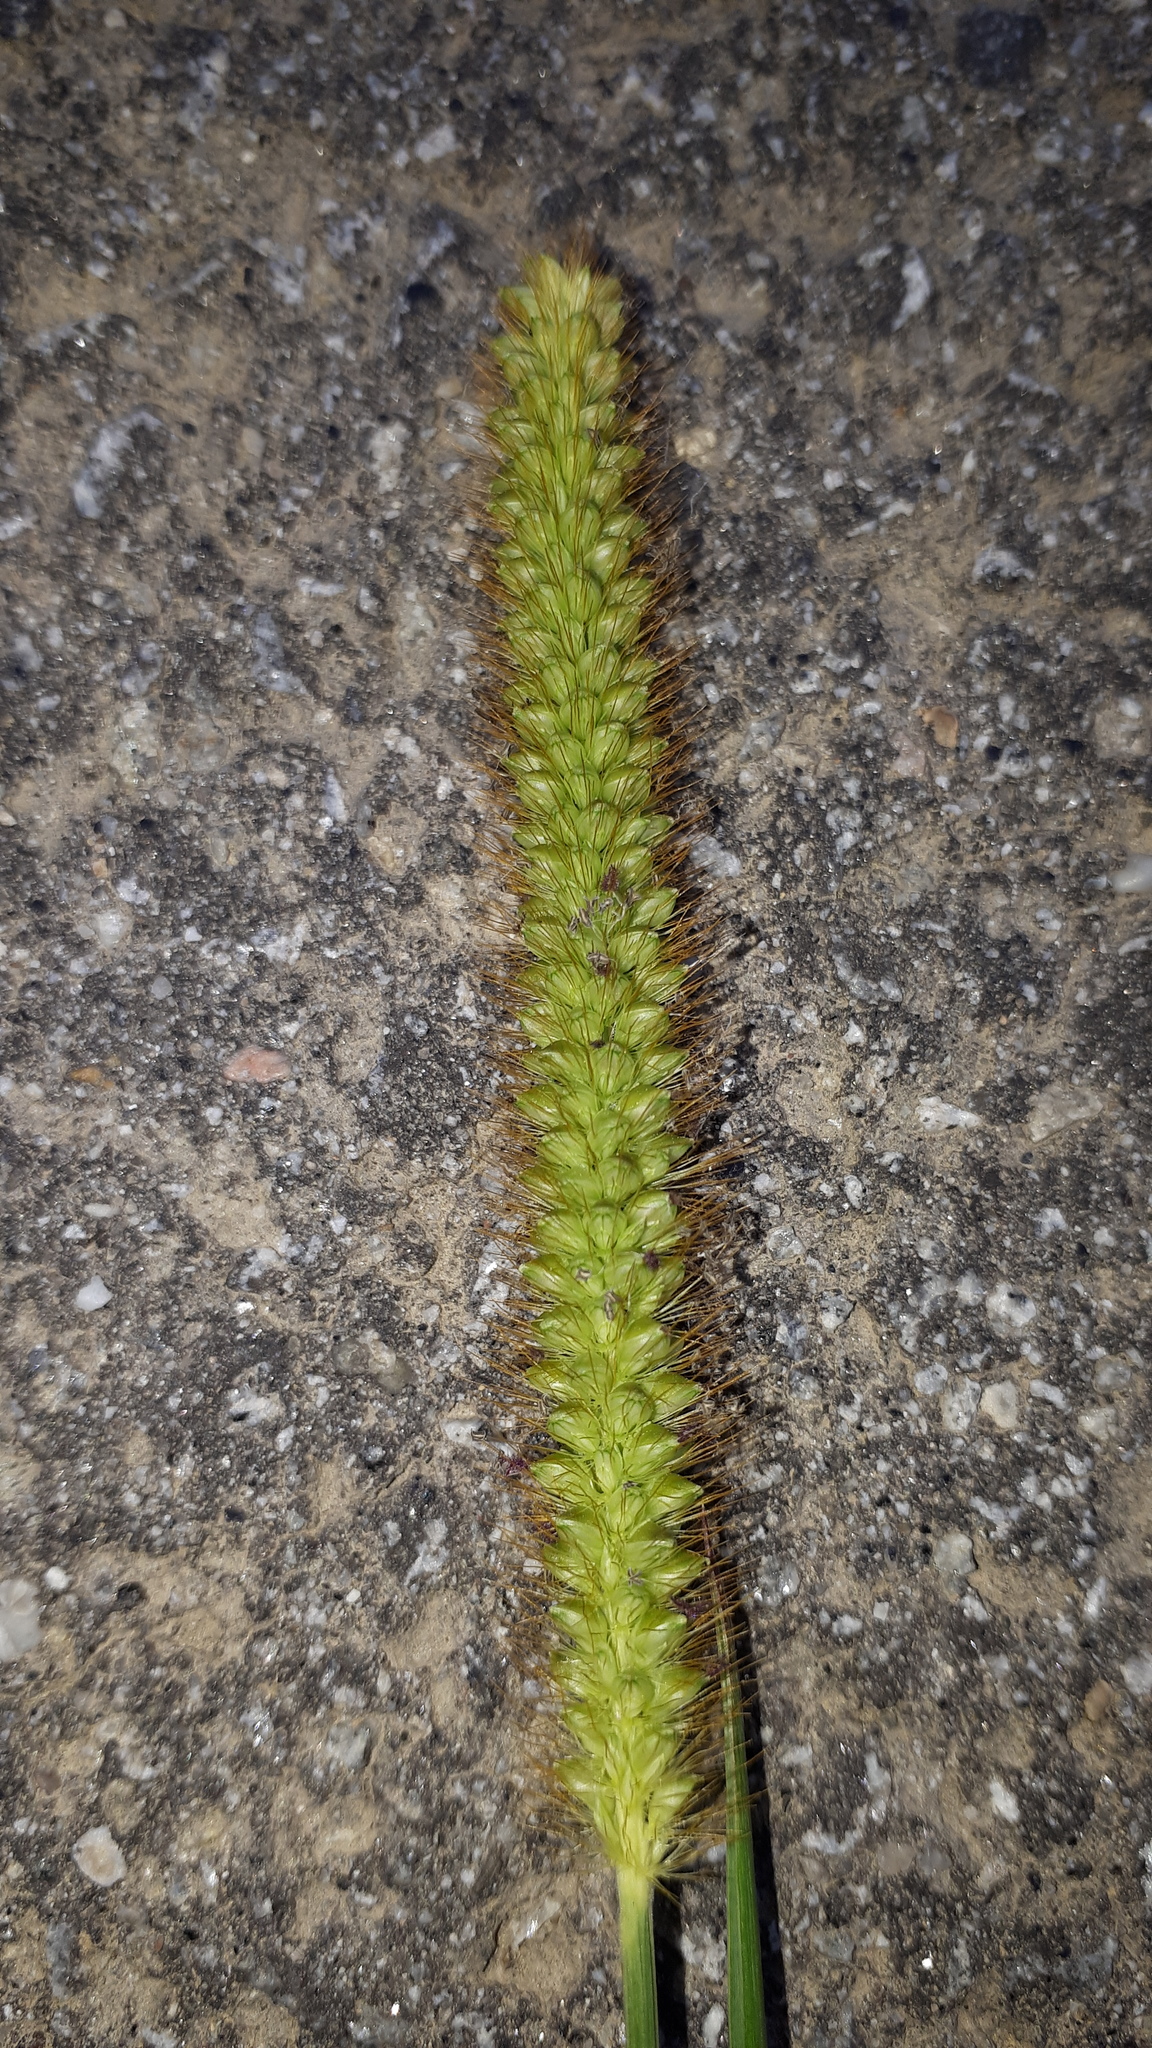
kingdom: Plantae
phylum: Tracheophyta
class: Liliopsida
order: Poales
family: Poaceae
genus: Setaria
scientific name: Setaria pumila
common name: Yellow bristle-grass
